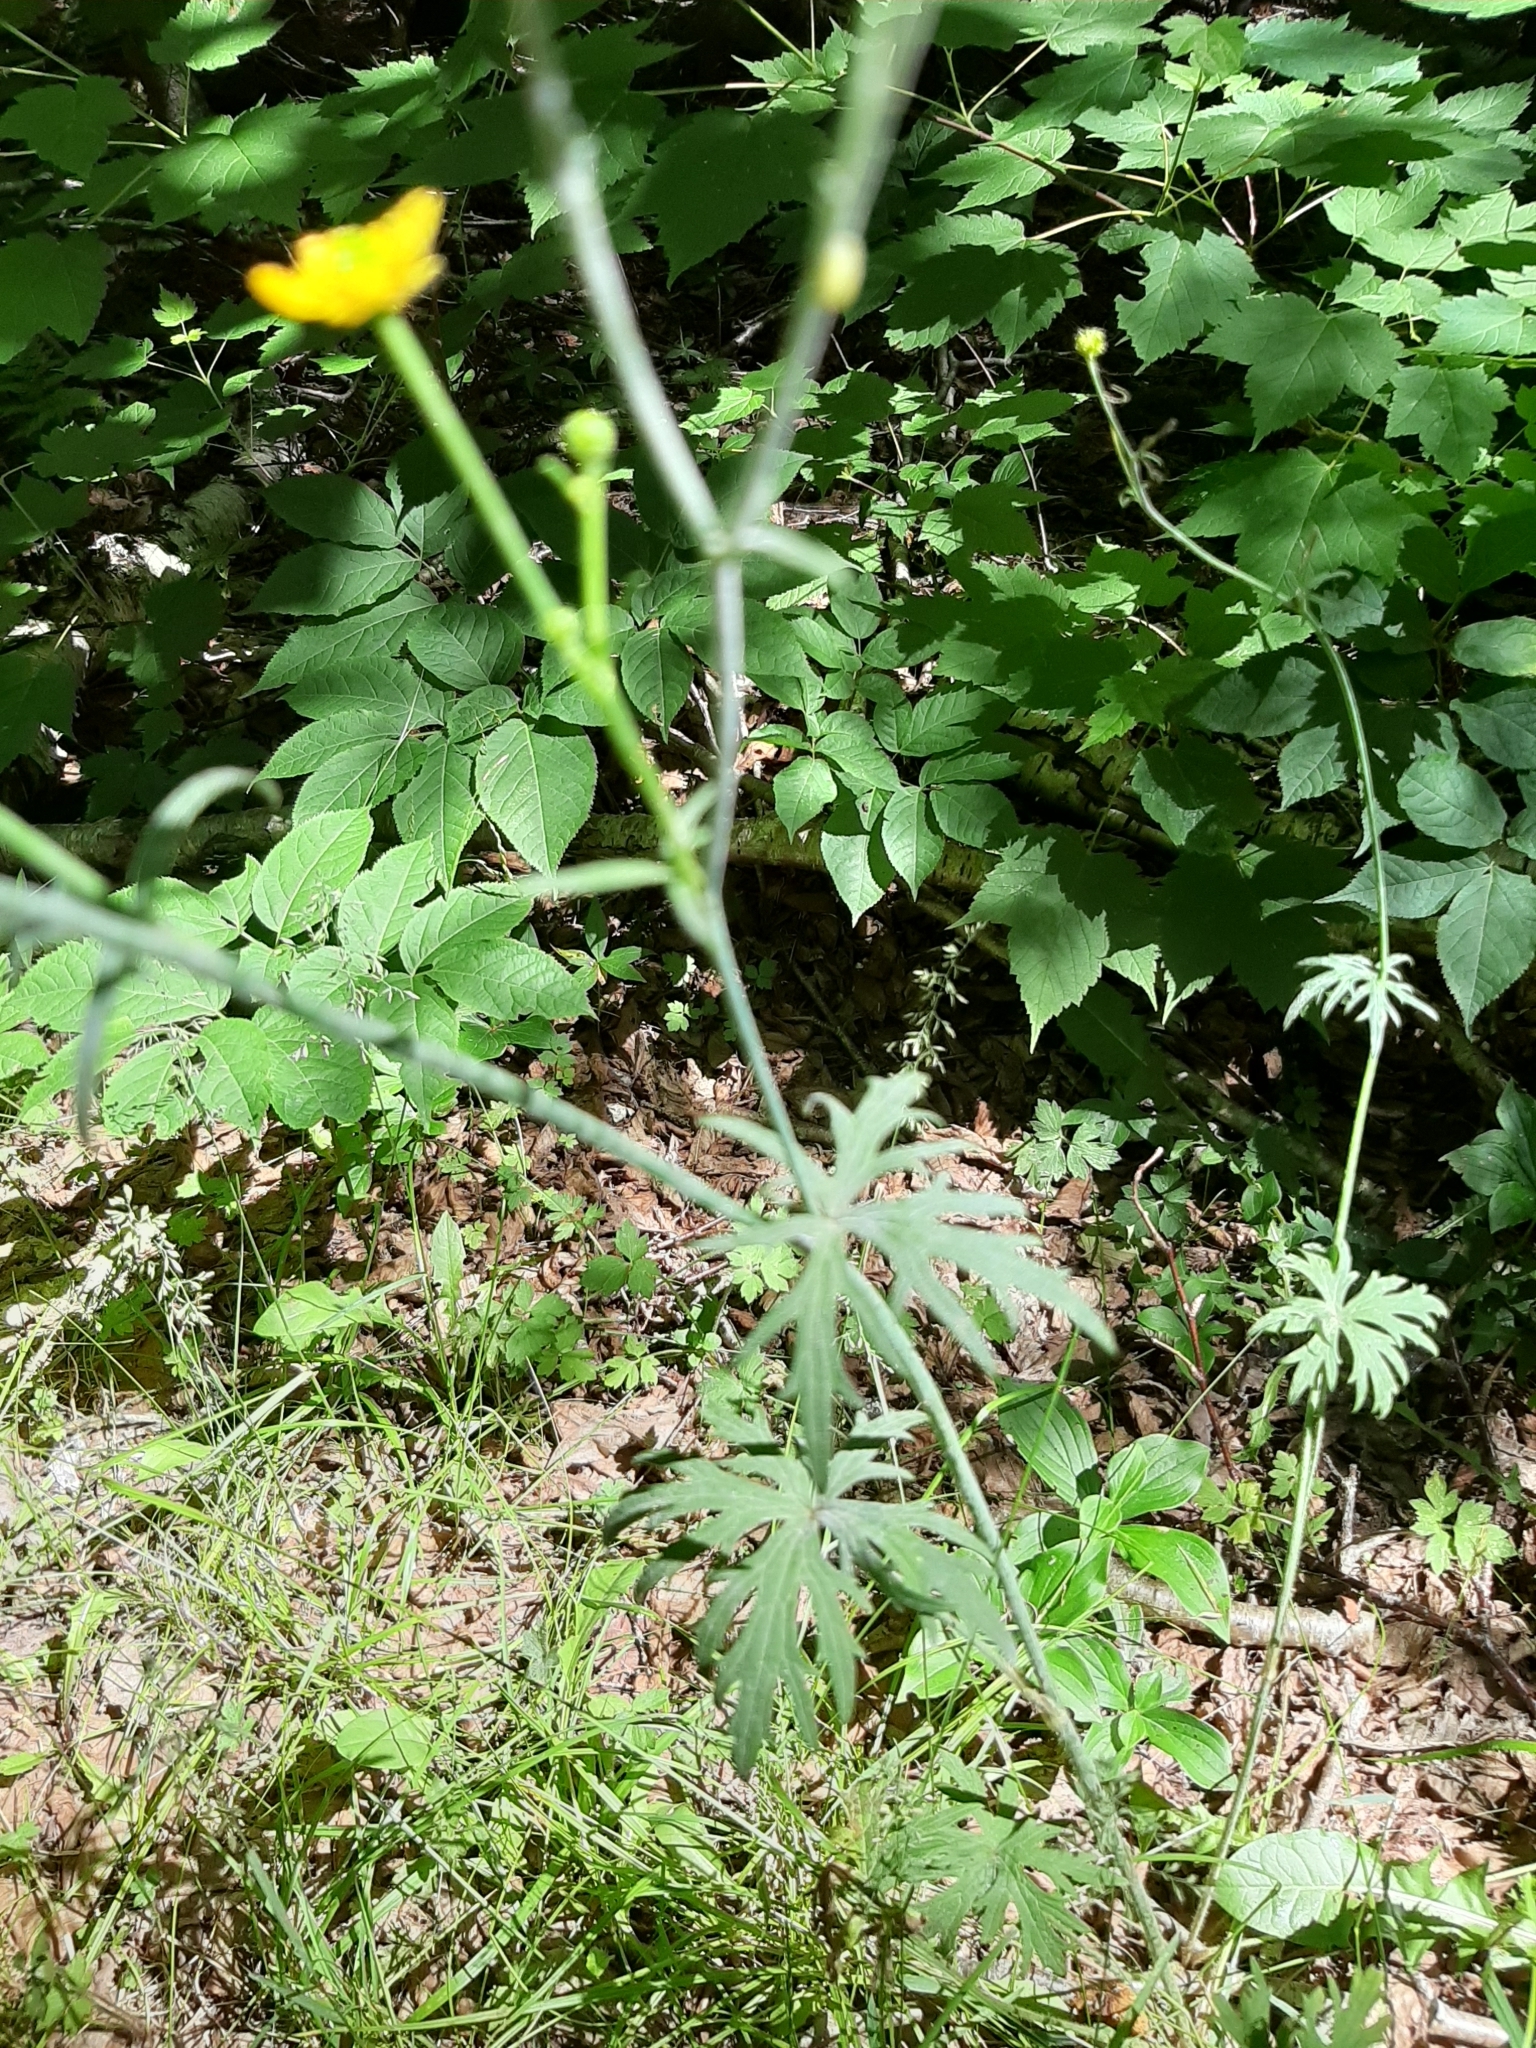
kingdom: Plantae
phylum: Tracheophyta
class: Magnoliopsida
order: Ranunculales
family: Ranunculaceae
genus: Ranunculus
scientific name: Ranunculus acris
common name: Meadow buttercup
